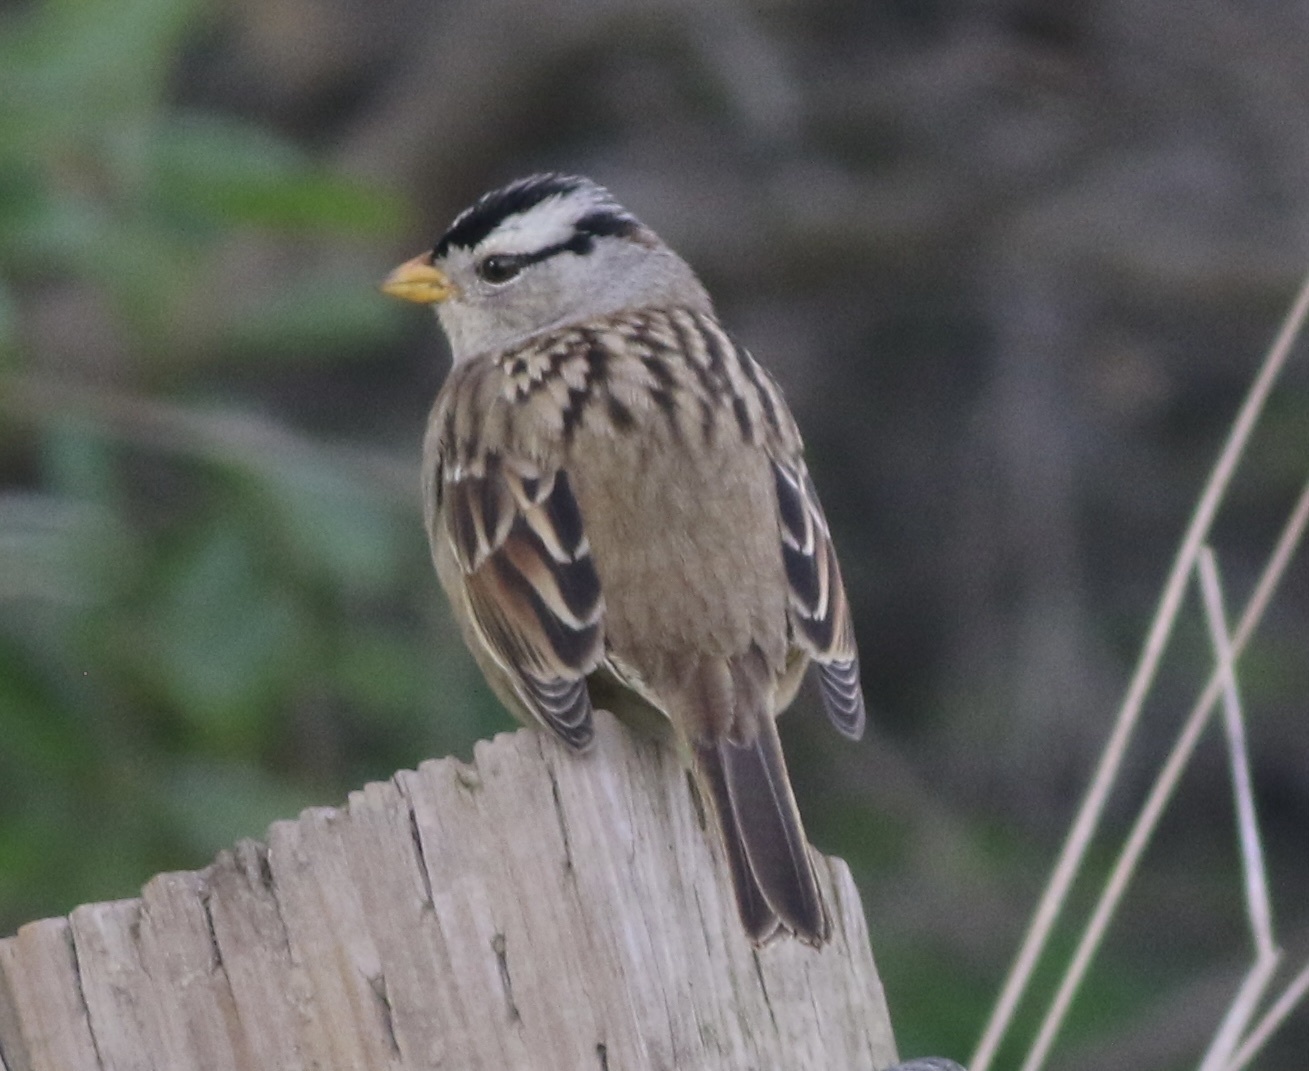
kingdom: Animalia
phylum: Chordata
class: Aves
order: Passeriformes
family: Passerellidae
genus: Zonotrichia
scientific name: Zonotrichia leucophrys
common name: White-crowned sparrow
